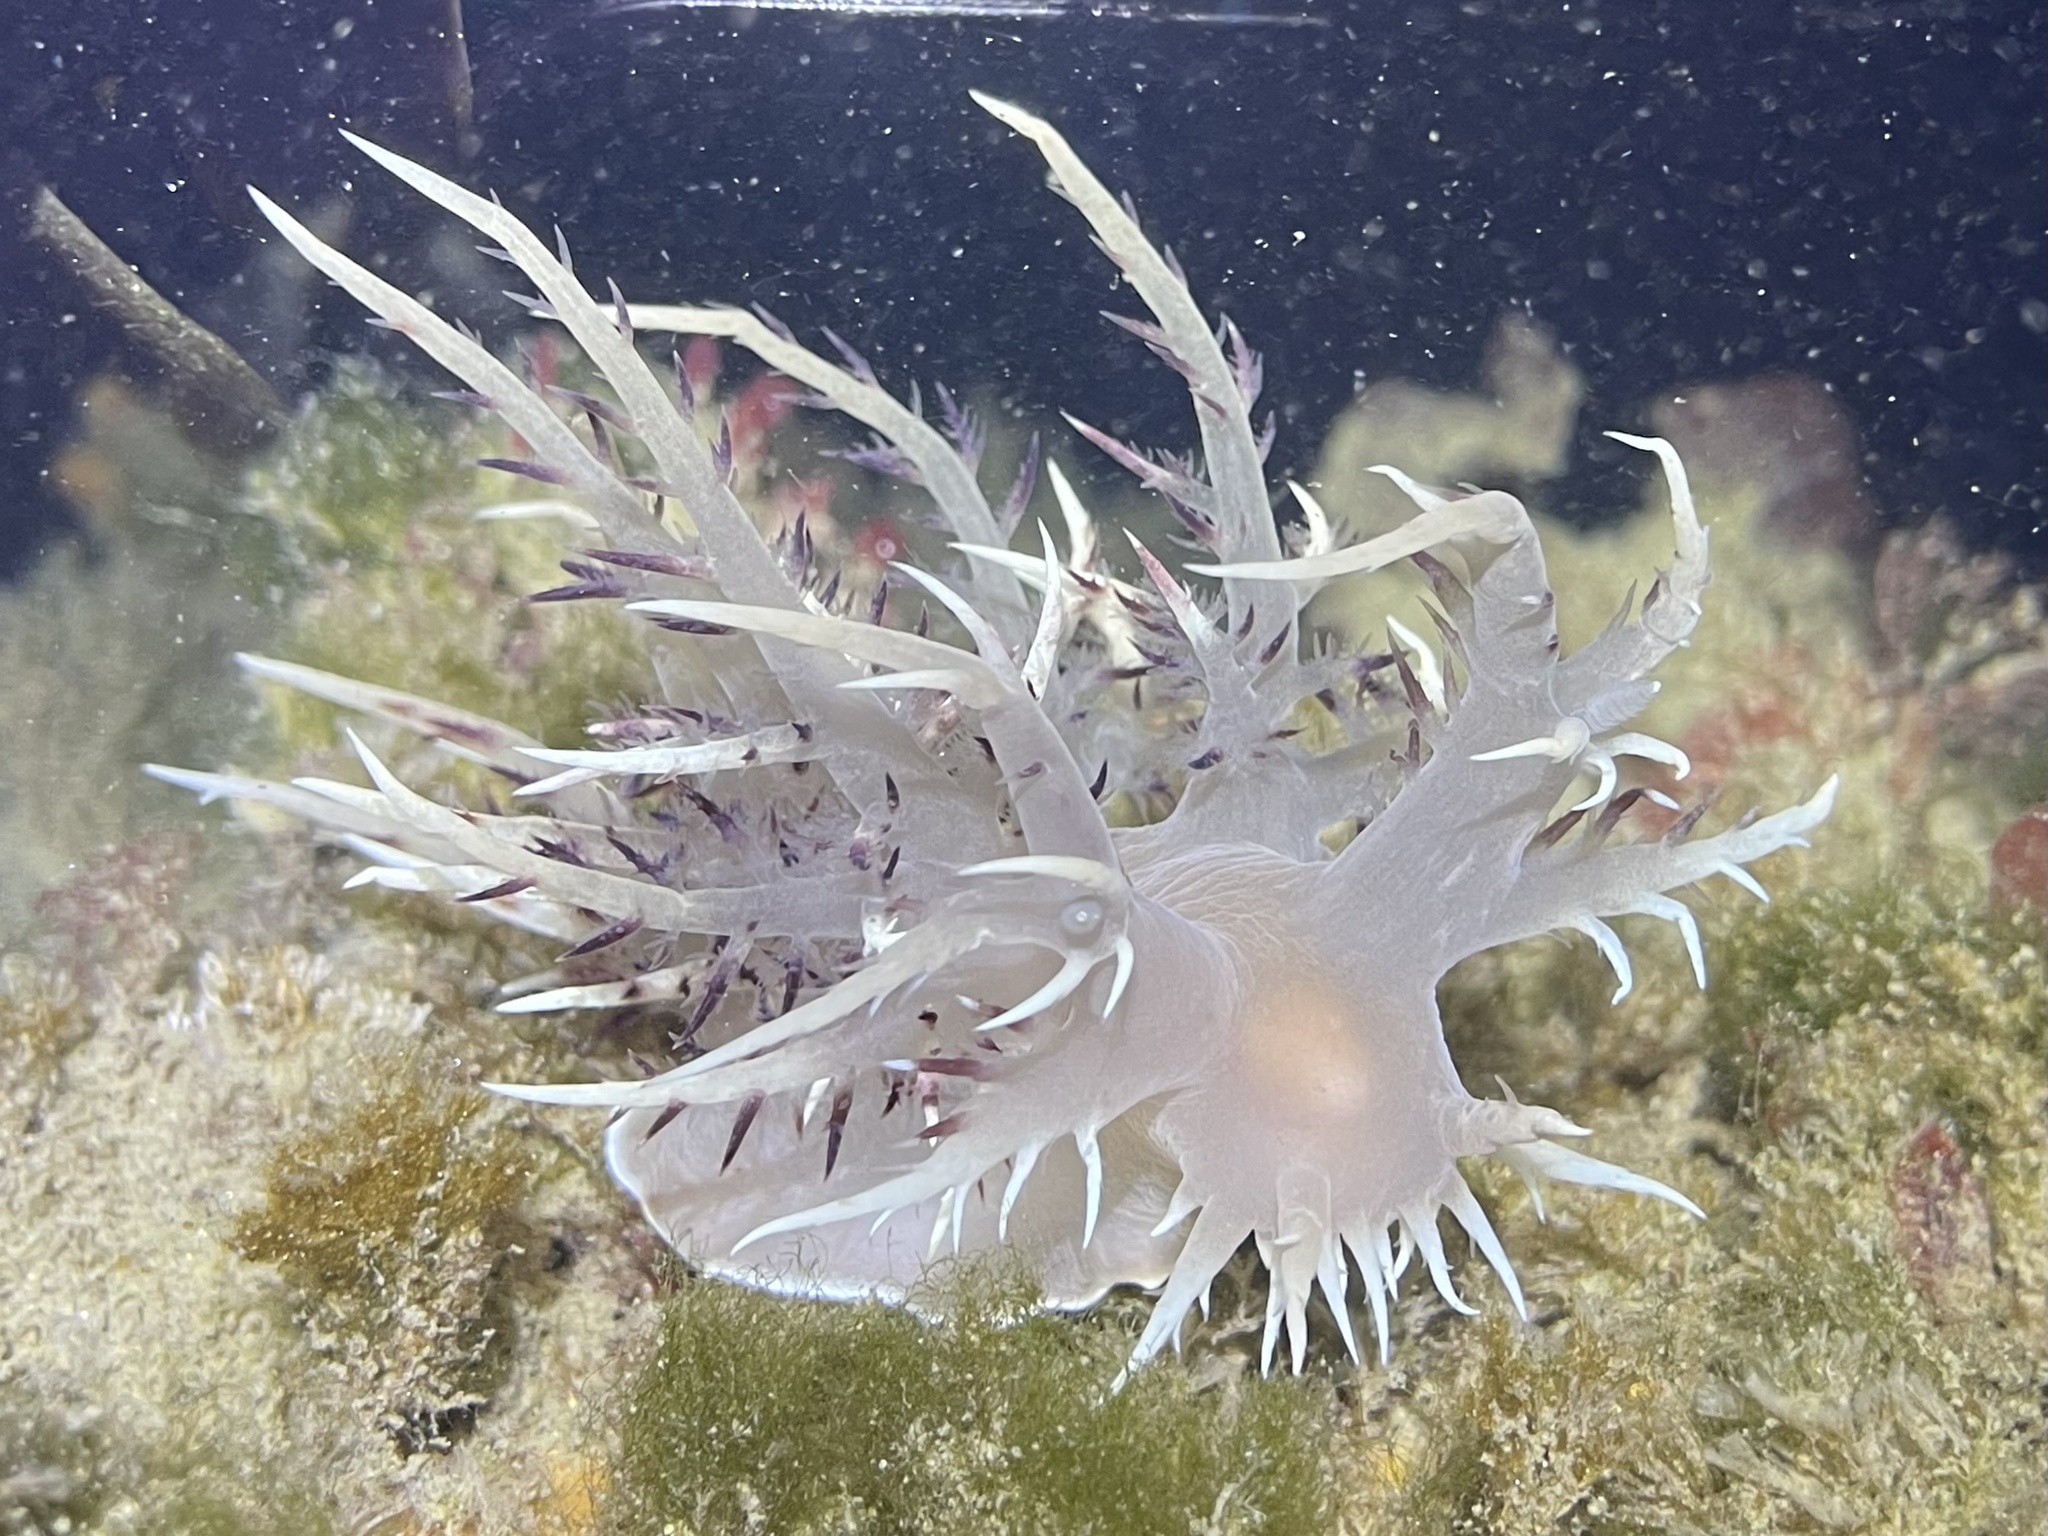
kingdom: Animalia
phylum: Mollusca
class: Gastropoda
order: Nudibranchia
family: Dendronotidae
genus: Dendronotus
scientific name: Dendronotus iris
